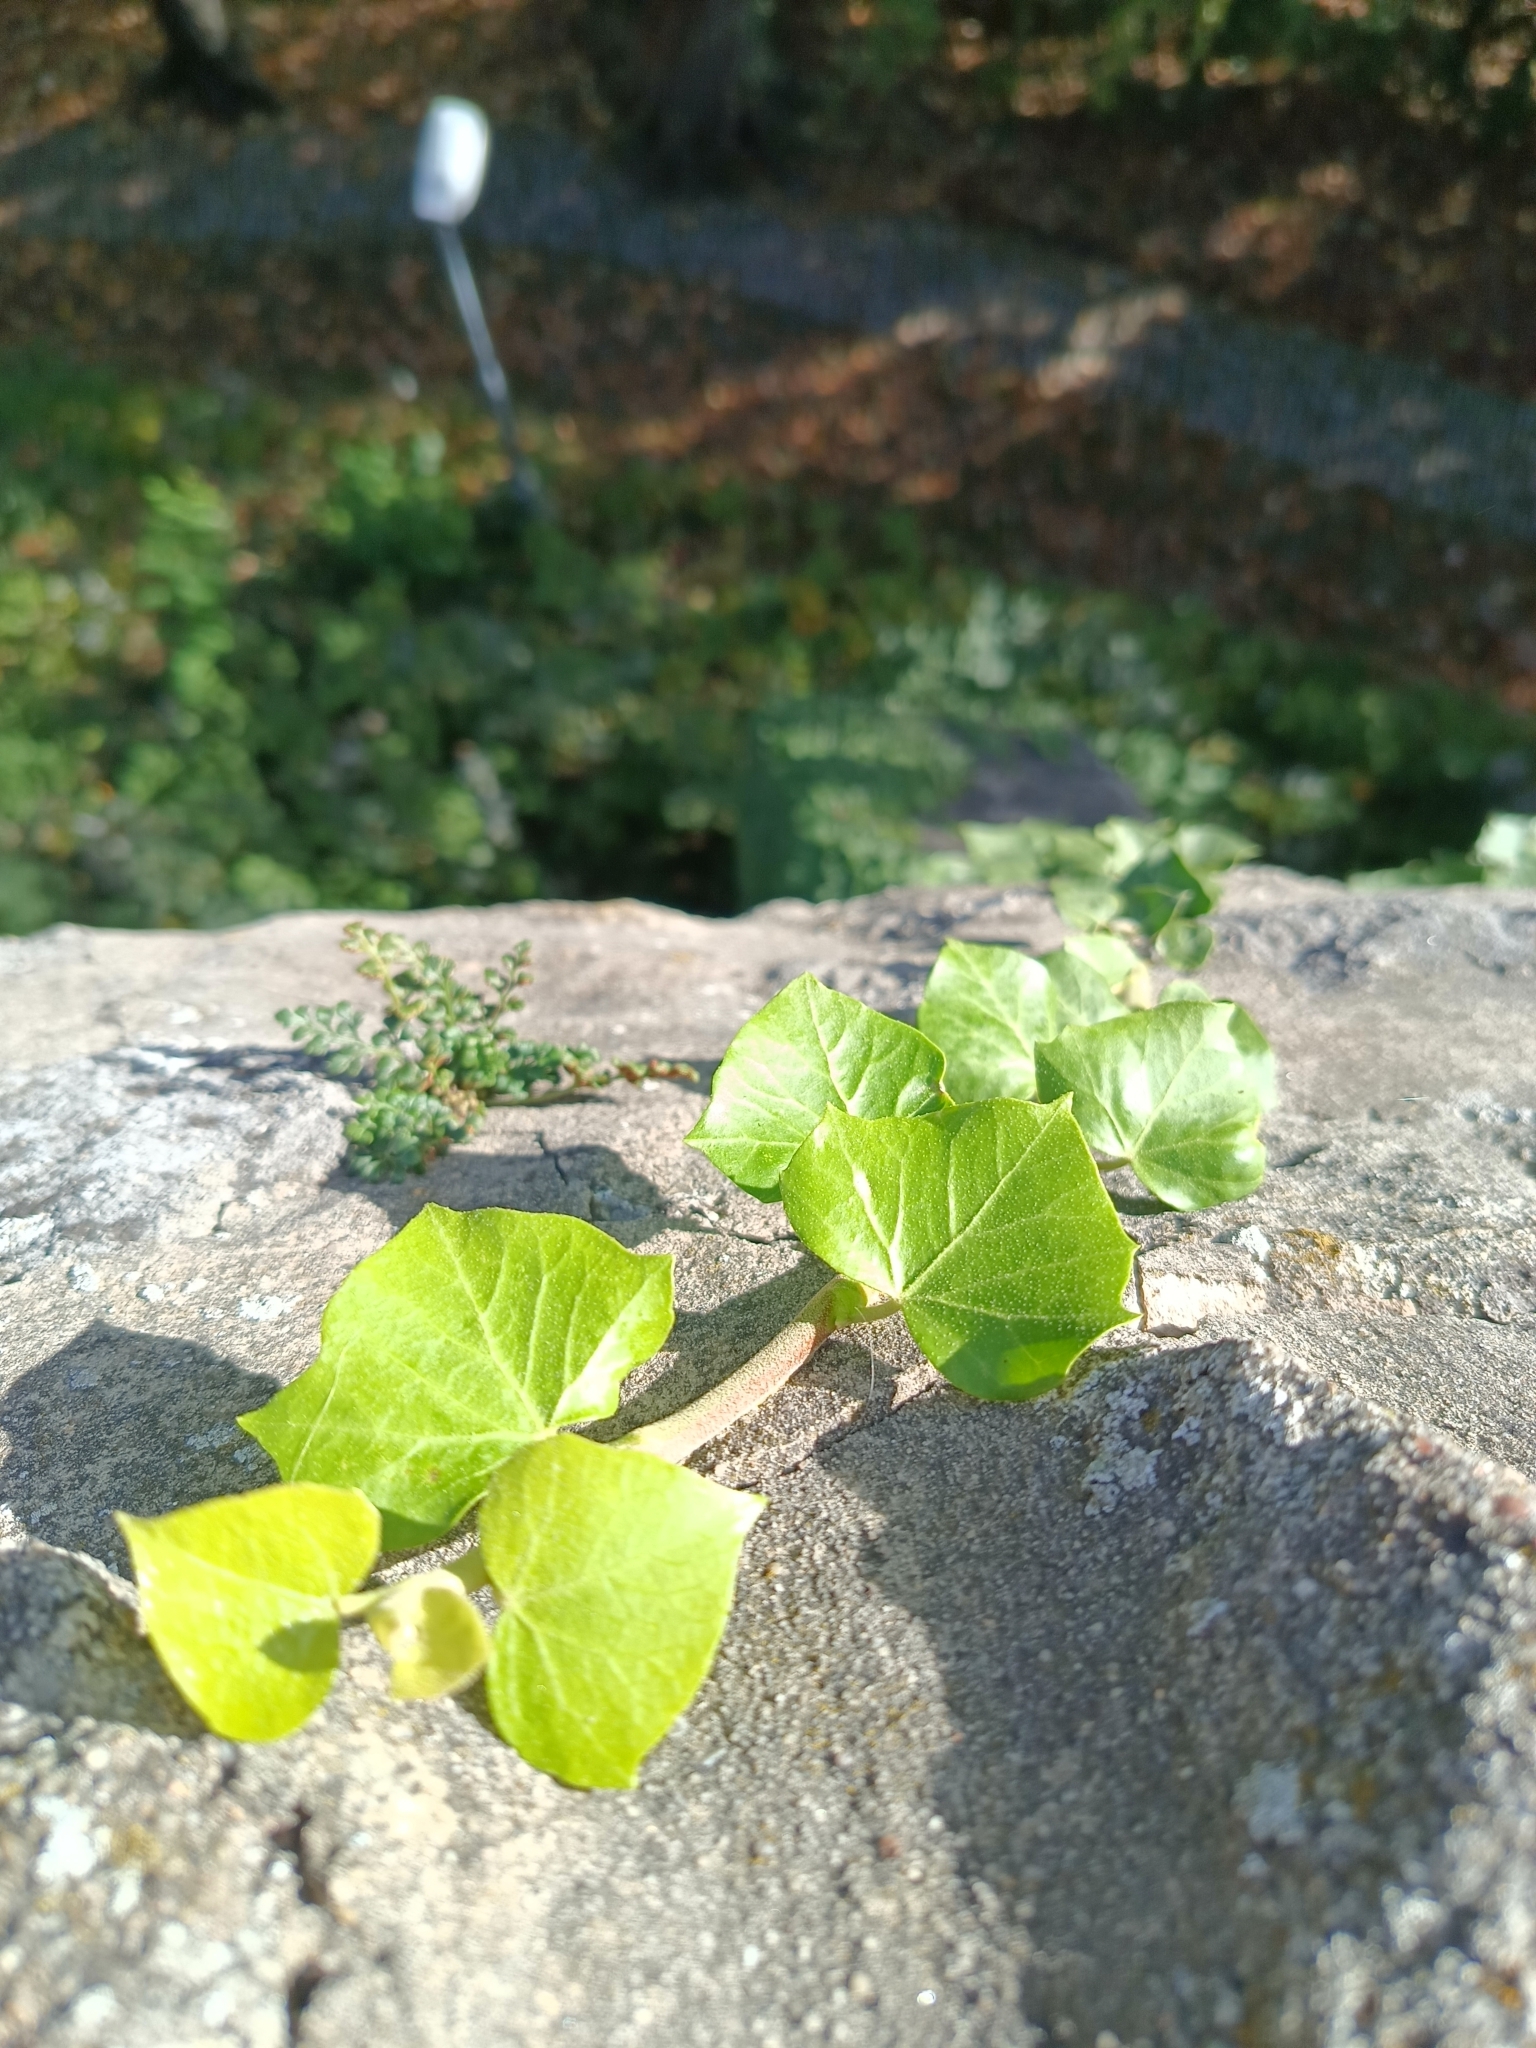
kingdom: Plantae
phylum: Tracheophyta
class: Magnoliopsida
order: Apiales
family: Araliaceae
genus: Hedera
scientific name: Hedera helix
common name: Ivy
